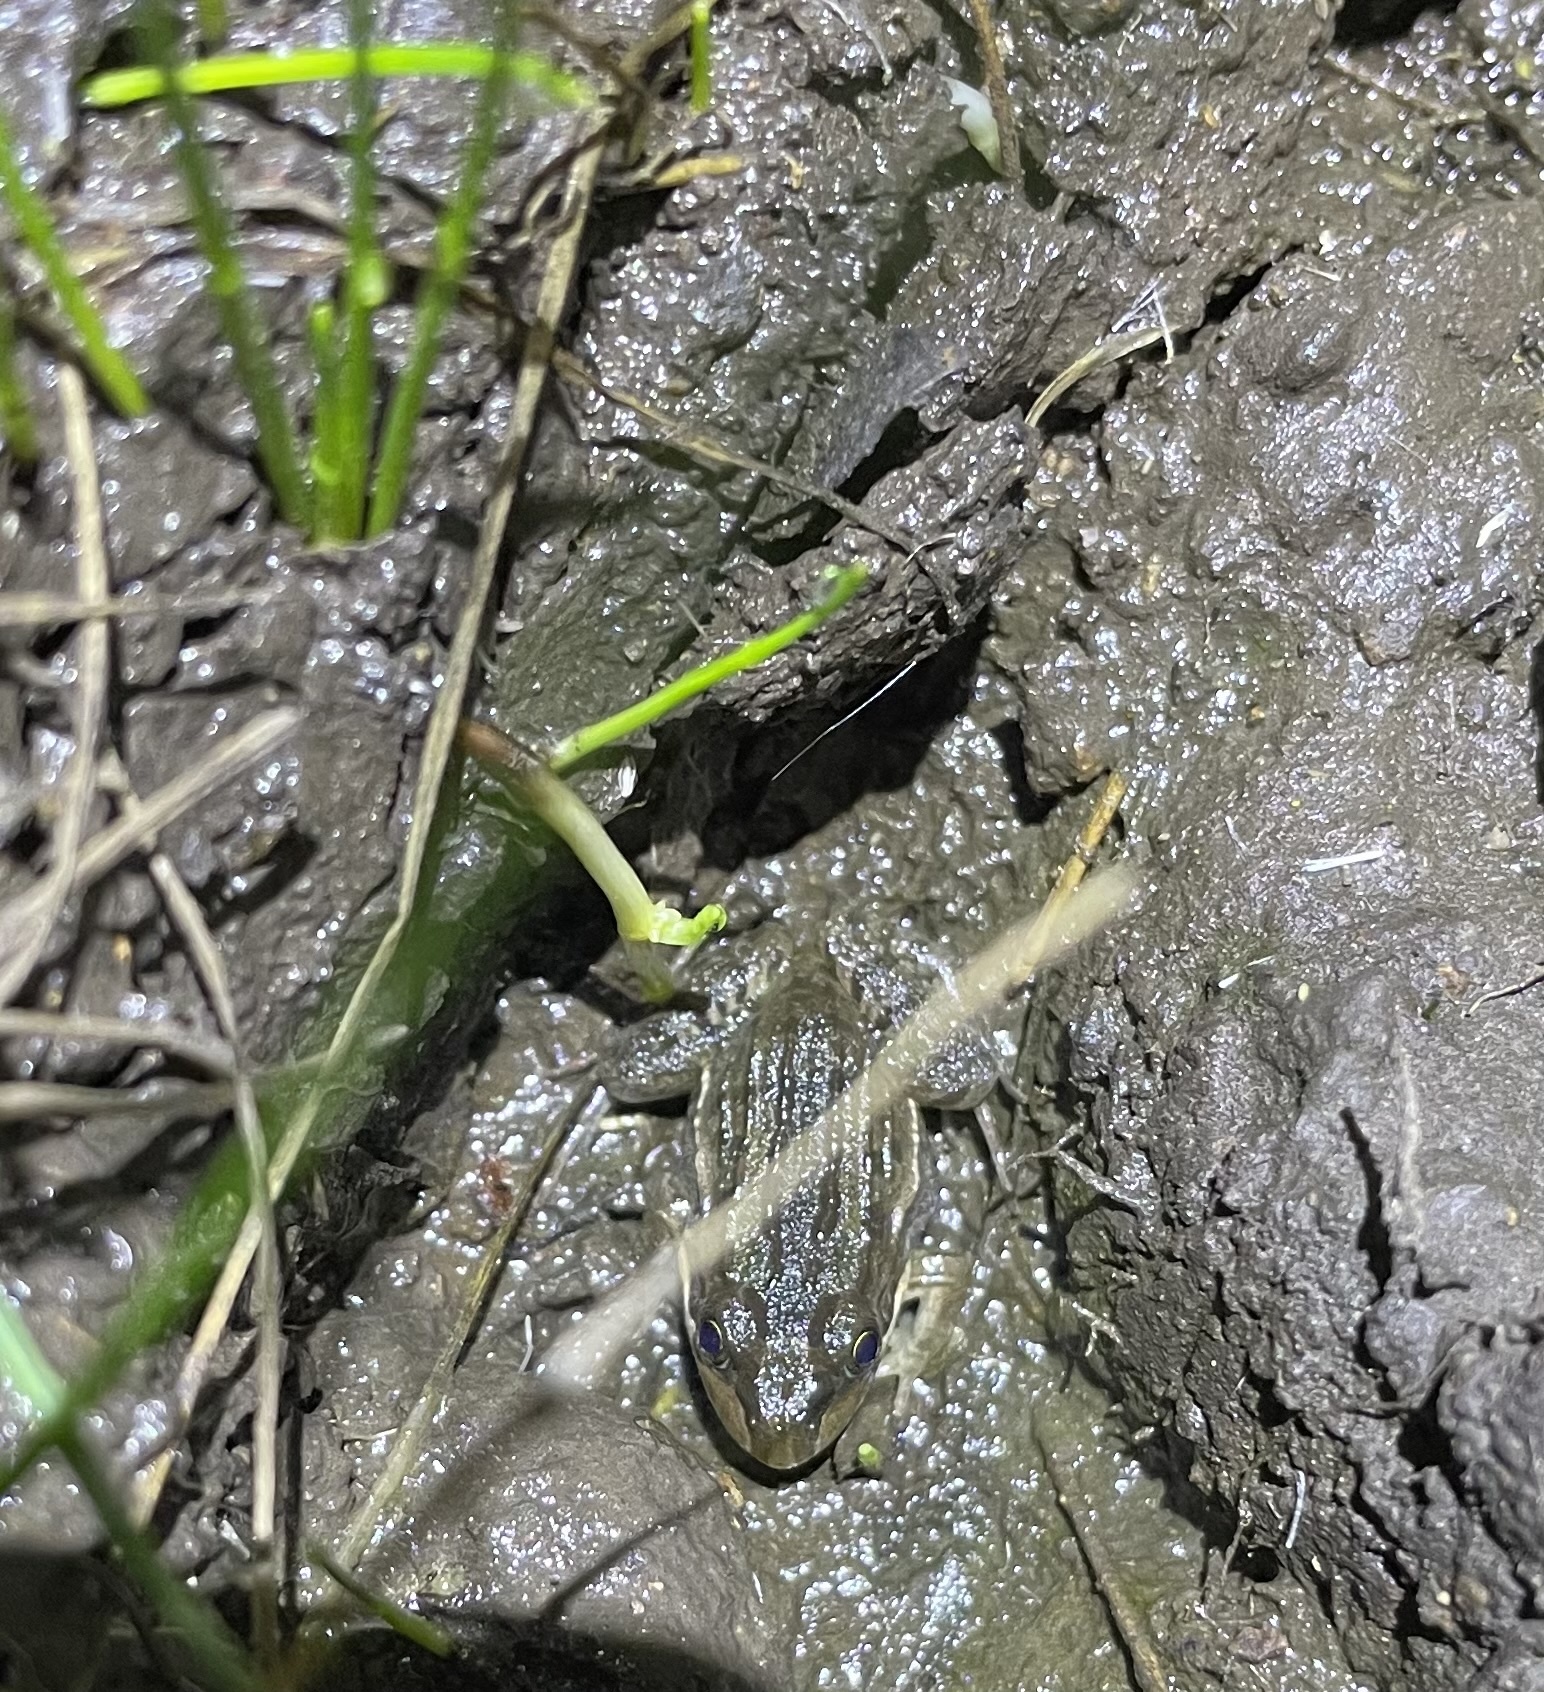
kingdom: Animalia
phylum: Chordata
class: Amphibia
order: Anura
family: Leptodactylidae
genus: Leptodactylus
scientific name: Leptodactylus luctator
